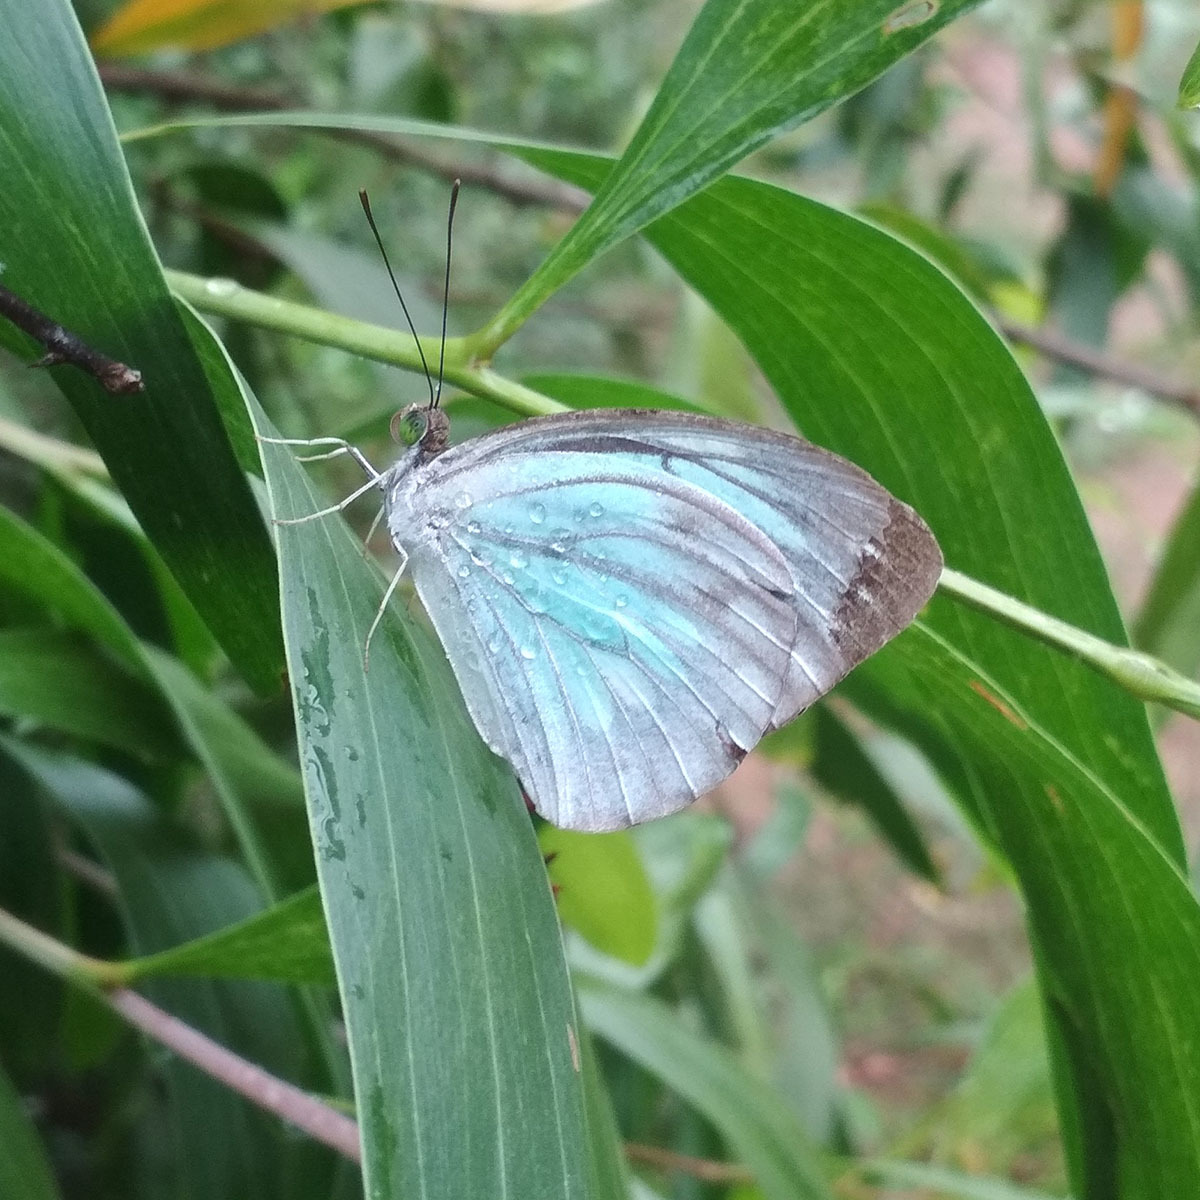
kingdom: Animalia
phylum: Arthropoda
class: Insecta
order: Lepidoptera
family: Pieridae
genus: Pareronia
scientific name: Pareronia hippia
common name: Indian wanderer
